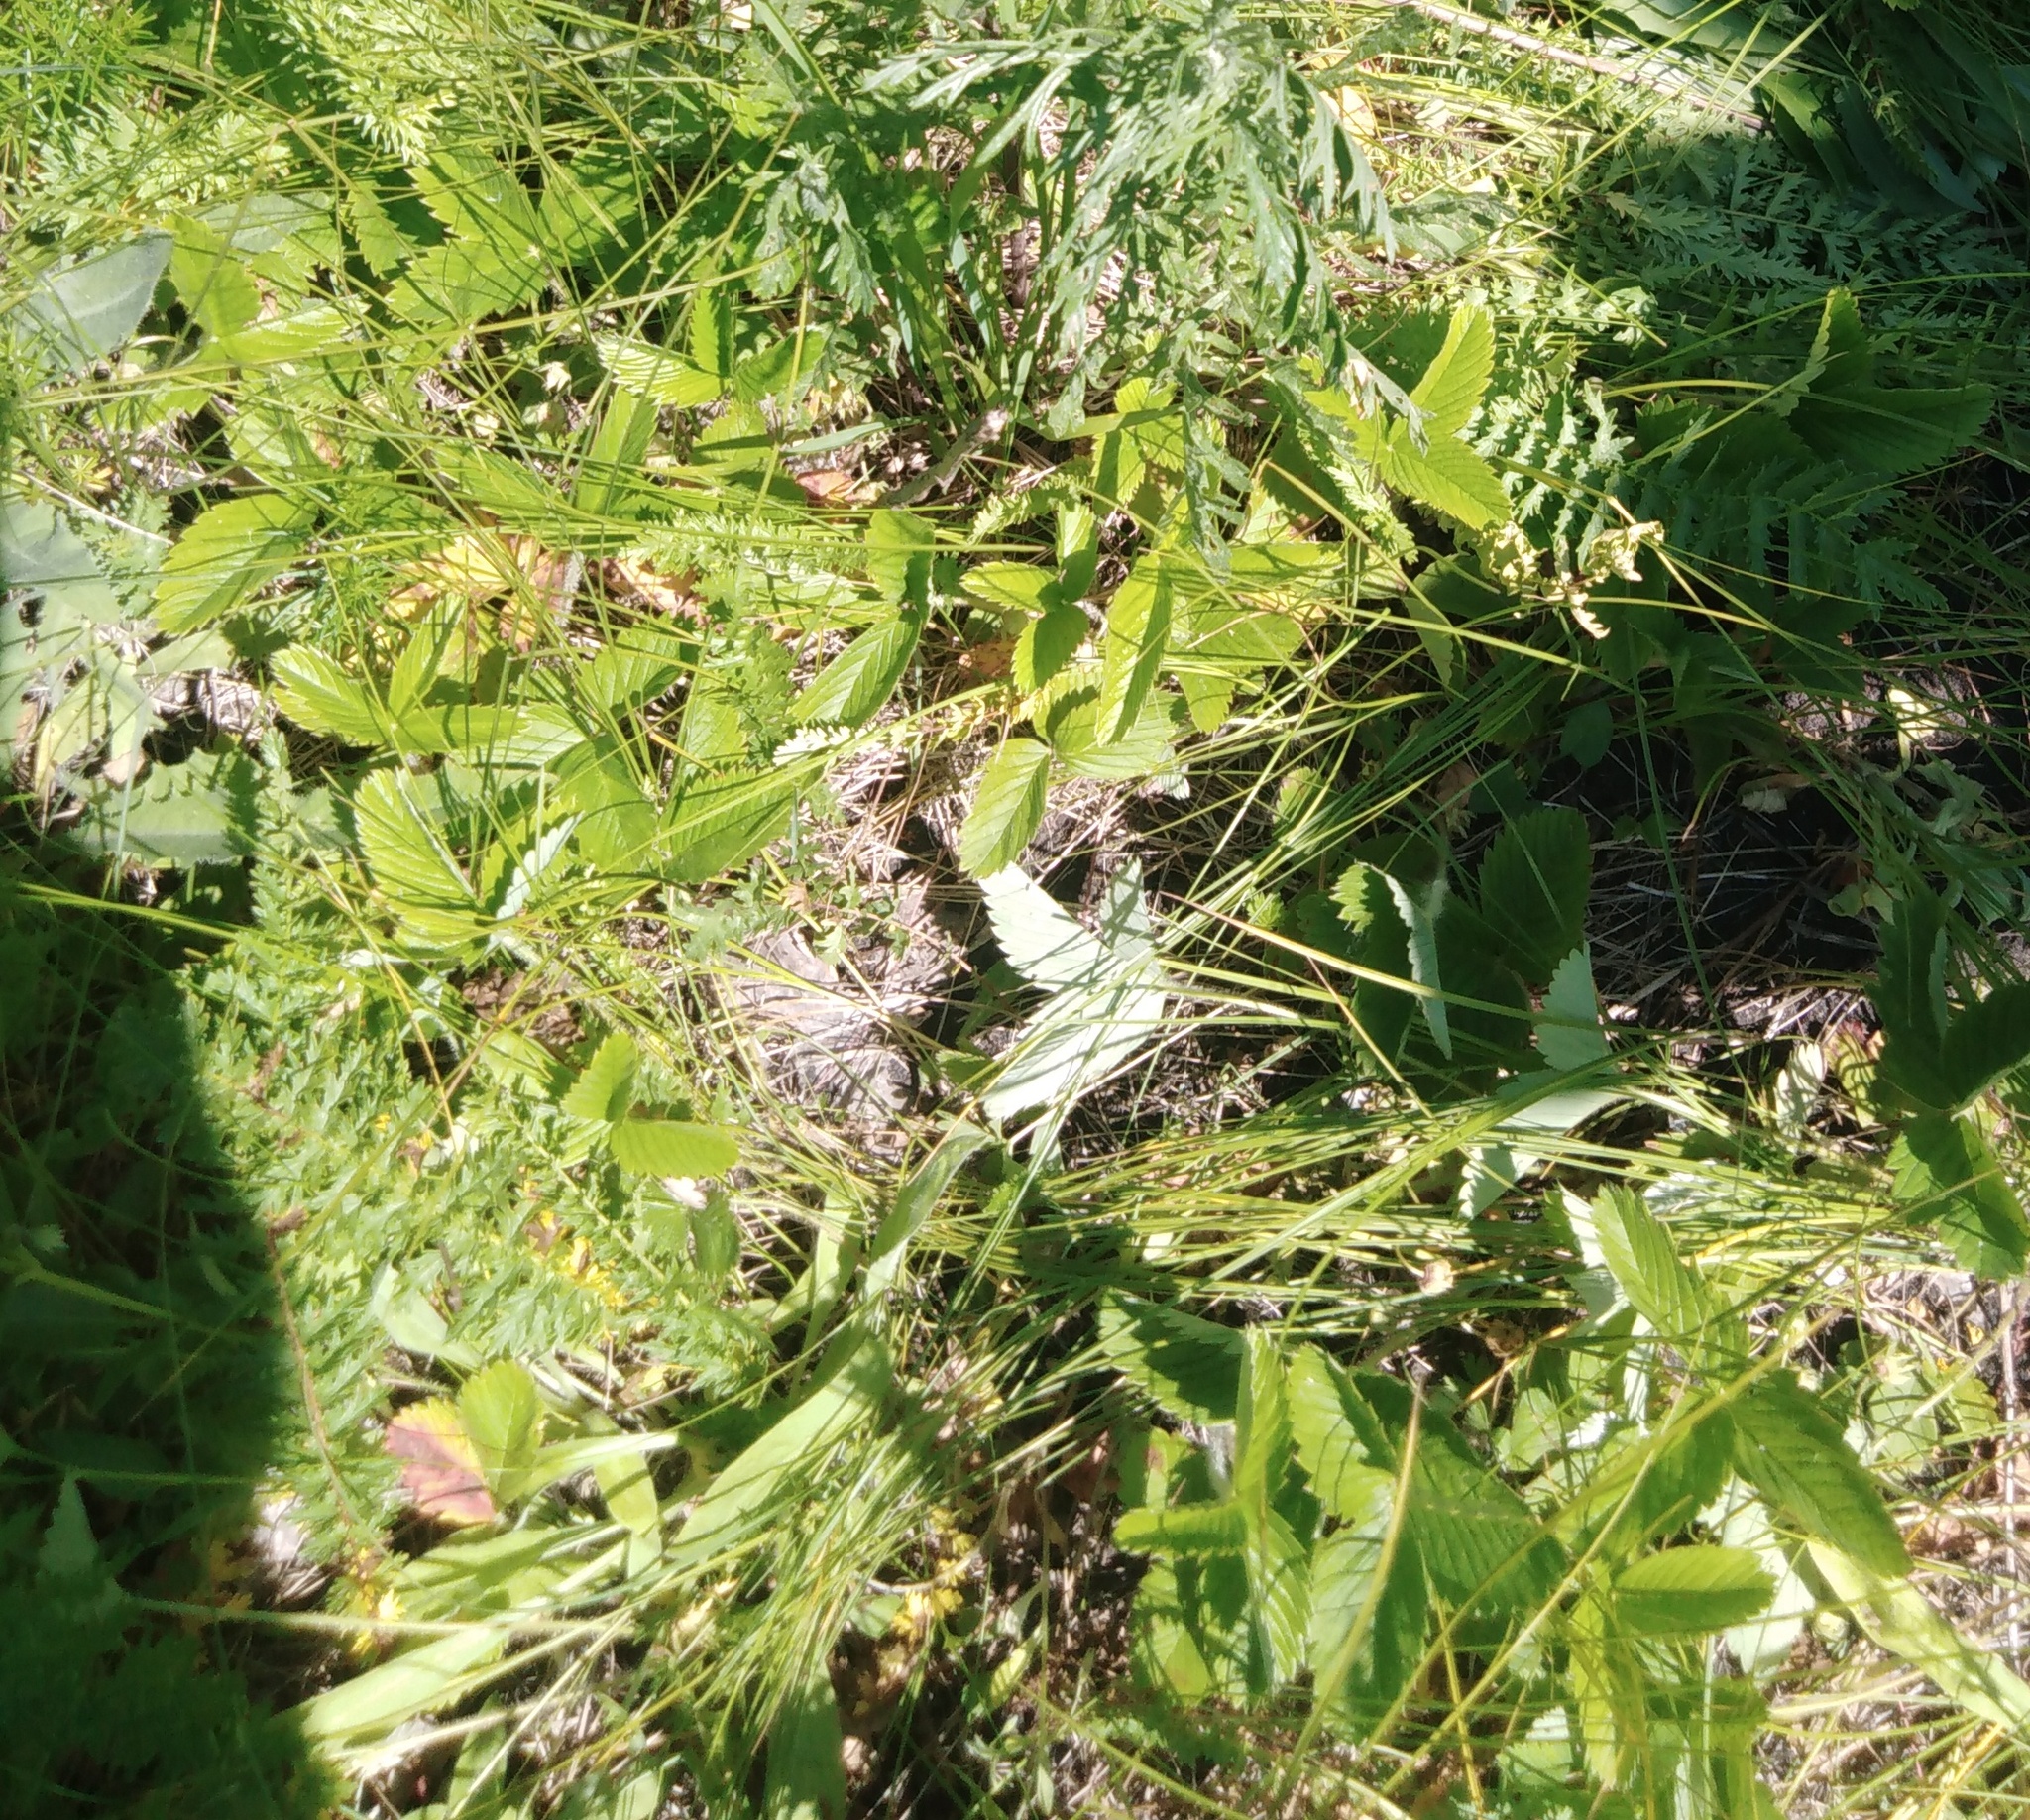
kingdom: Plantae
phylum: Tracheophyta
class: Magnoliopsida
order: Rosales
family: Rosaceae
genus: Fragaria
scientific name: Fragaria viridis
